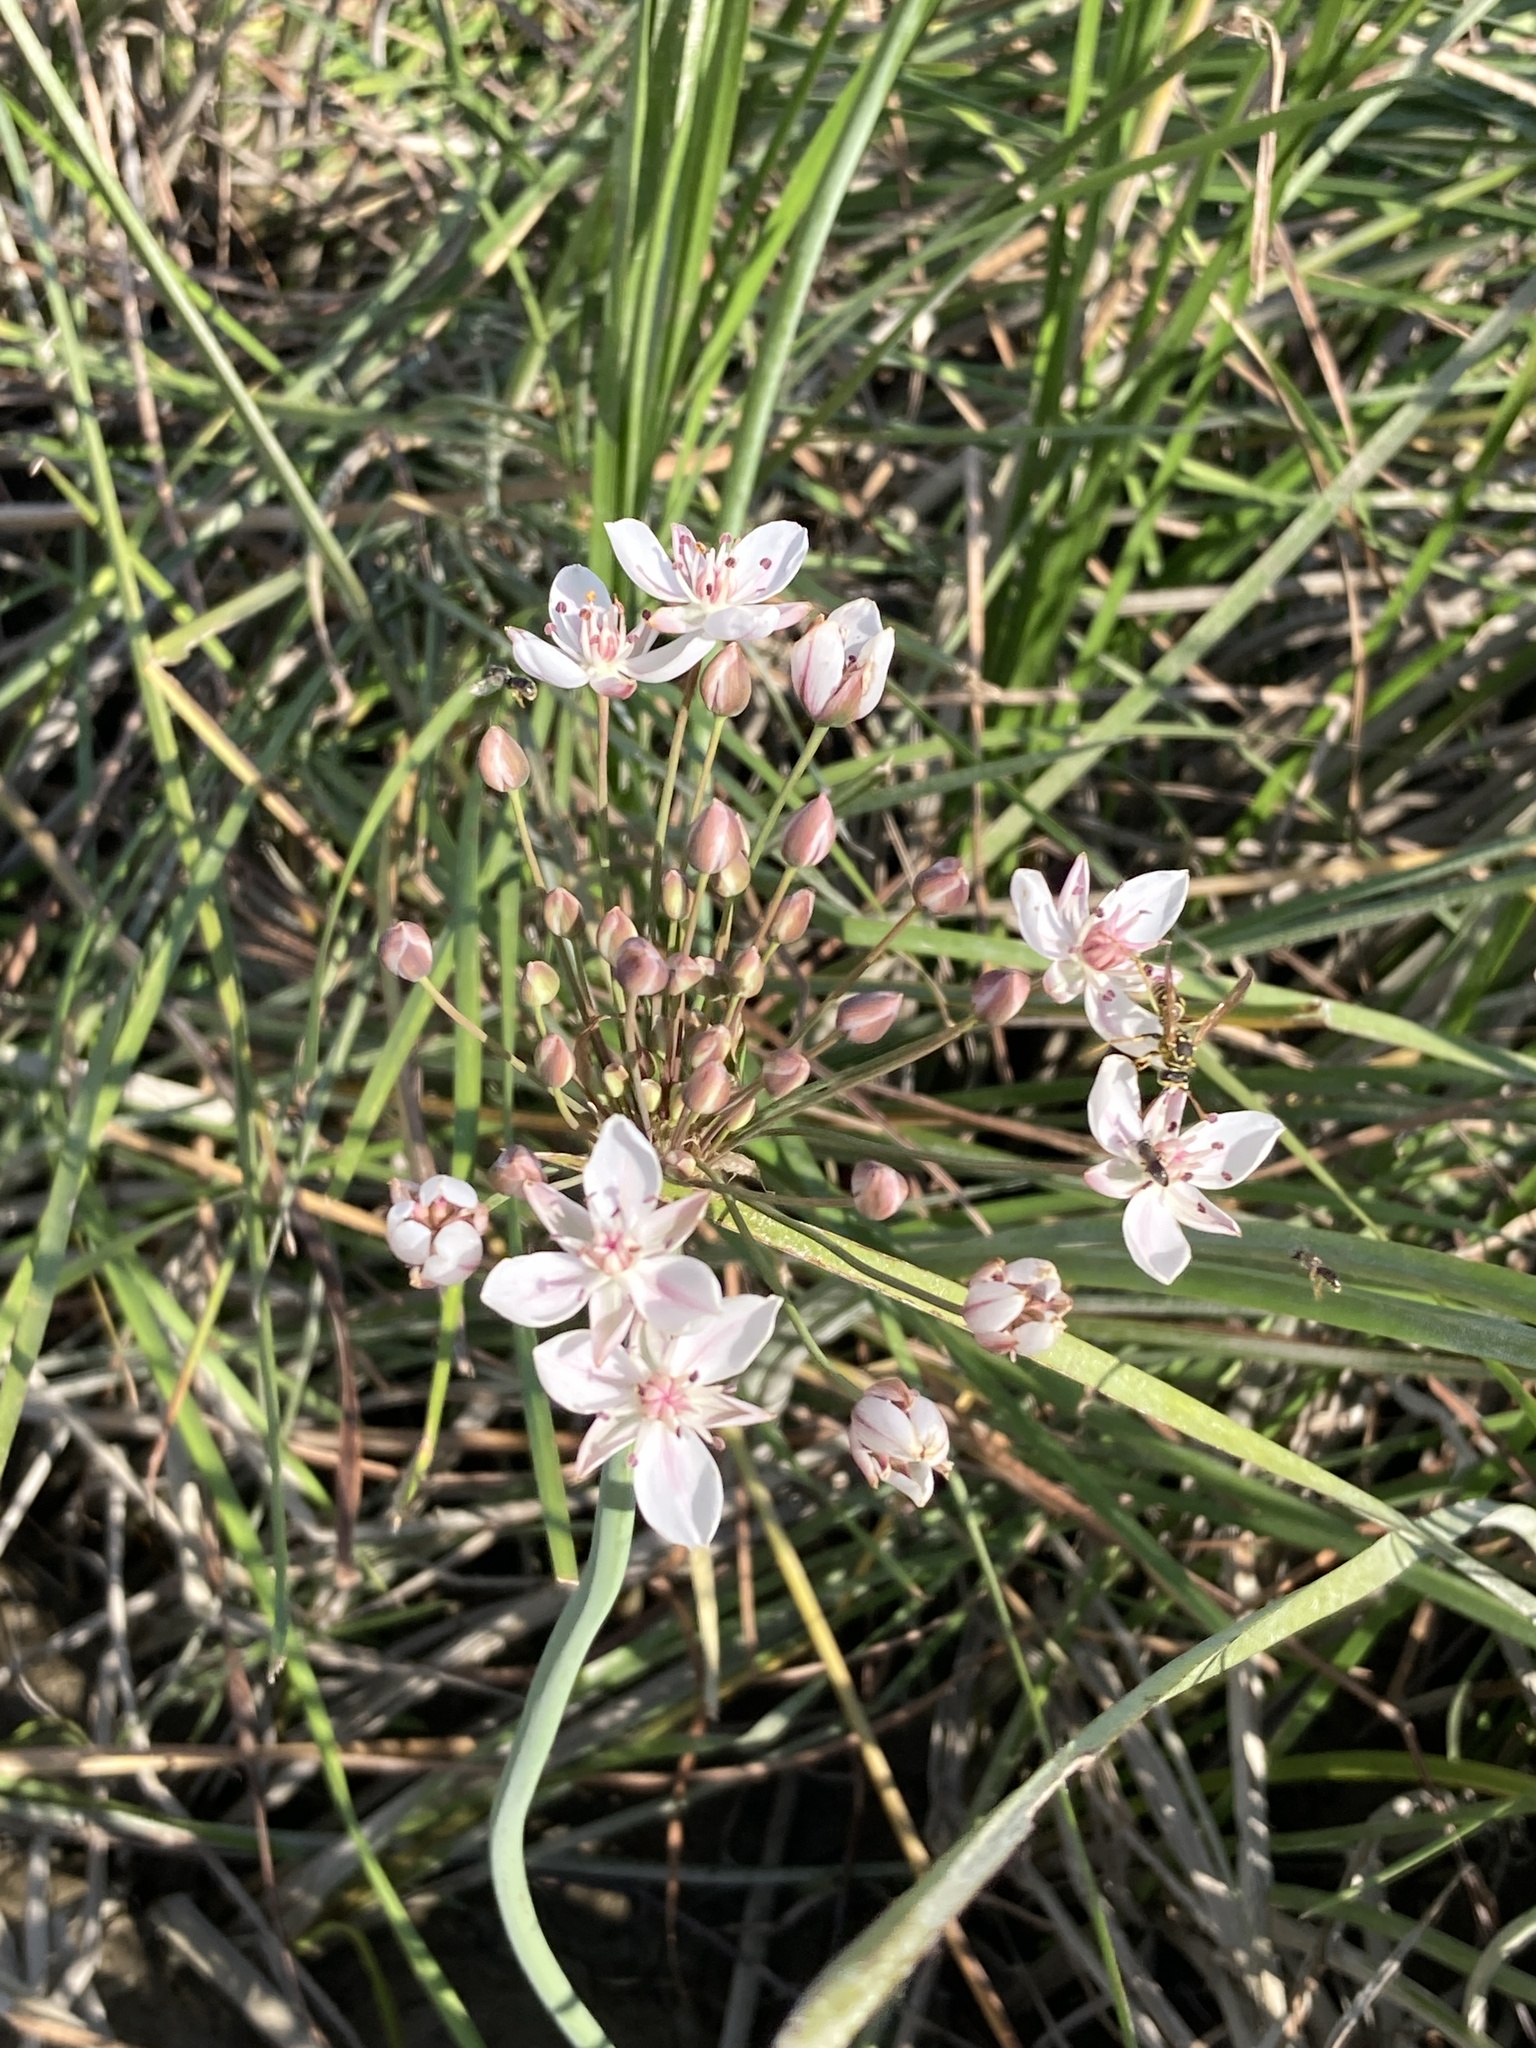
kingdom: Plantae
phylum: Tracheophyta
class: Liliopsida
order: Alismatales
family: Butomaceae
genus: Butomus
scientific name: Butomus umbellatus
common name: Flowering-rush
